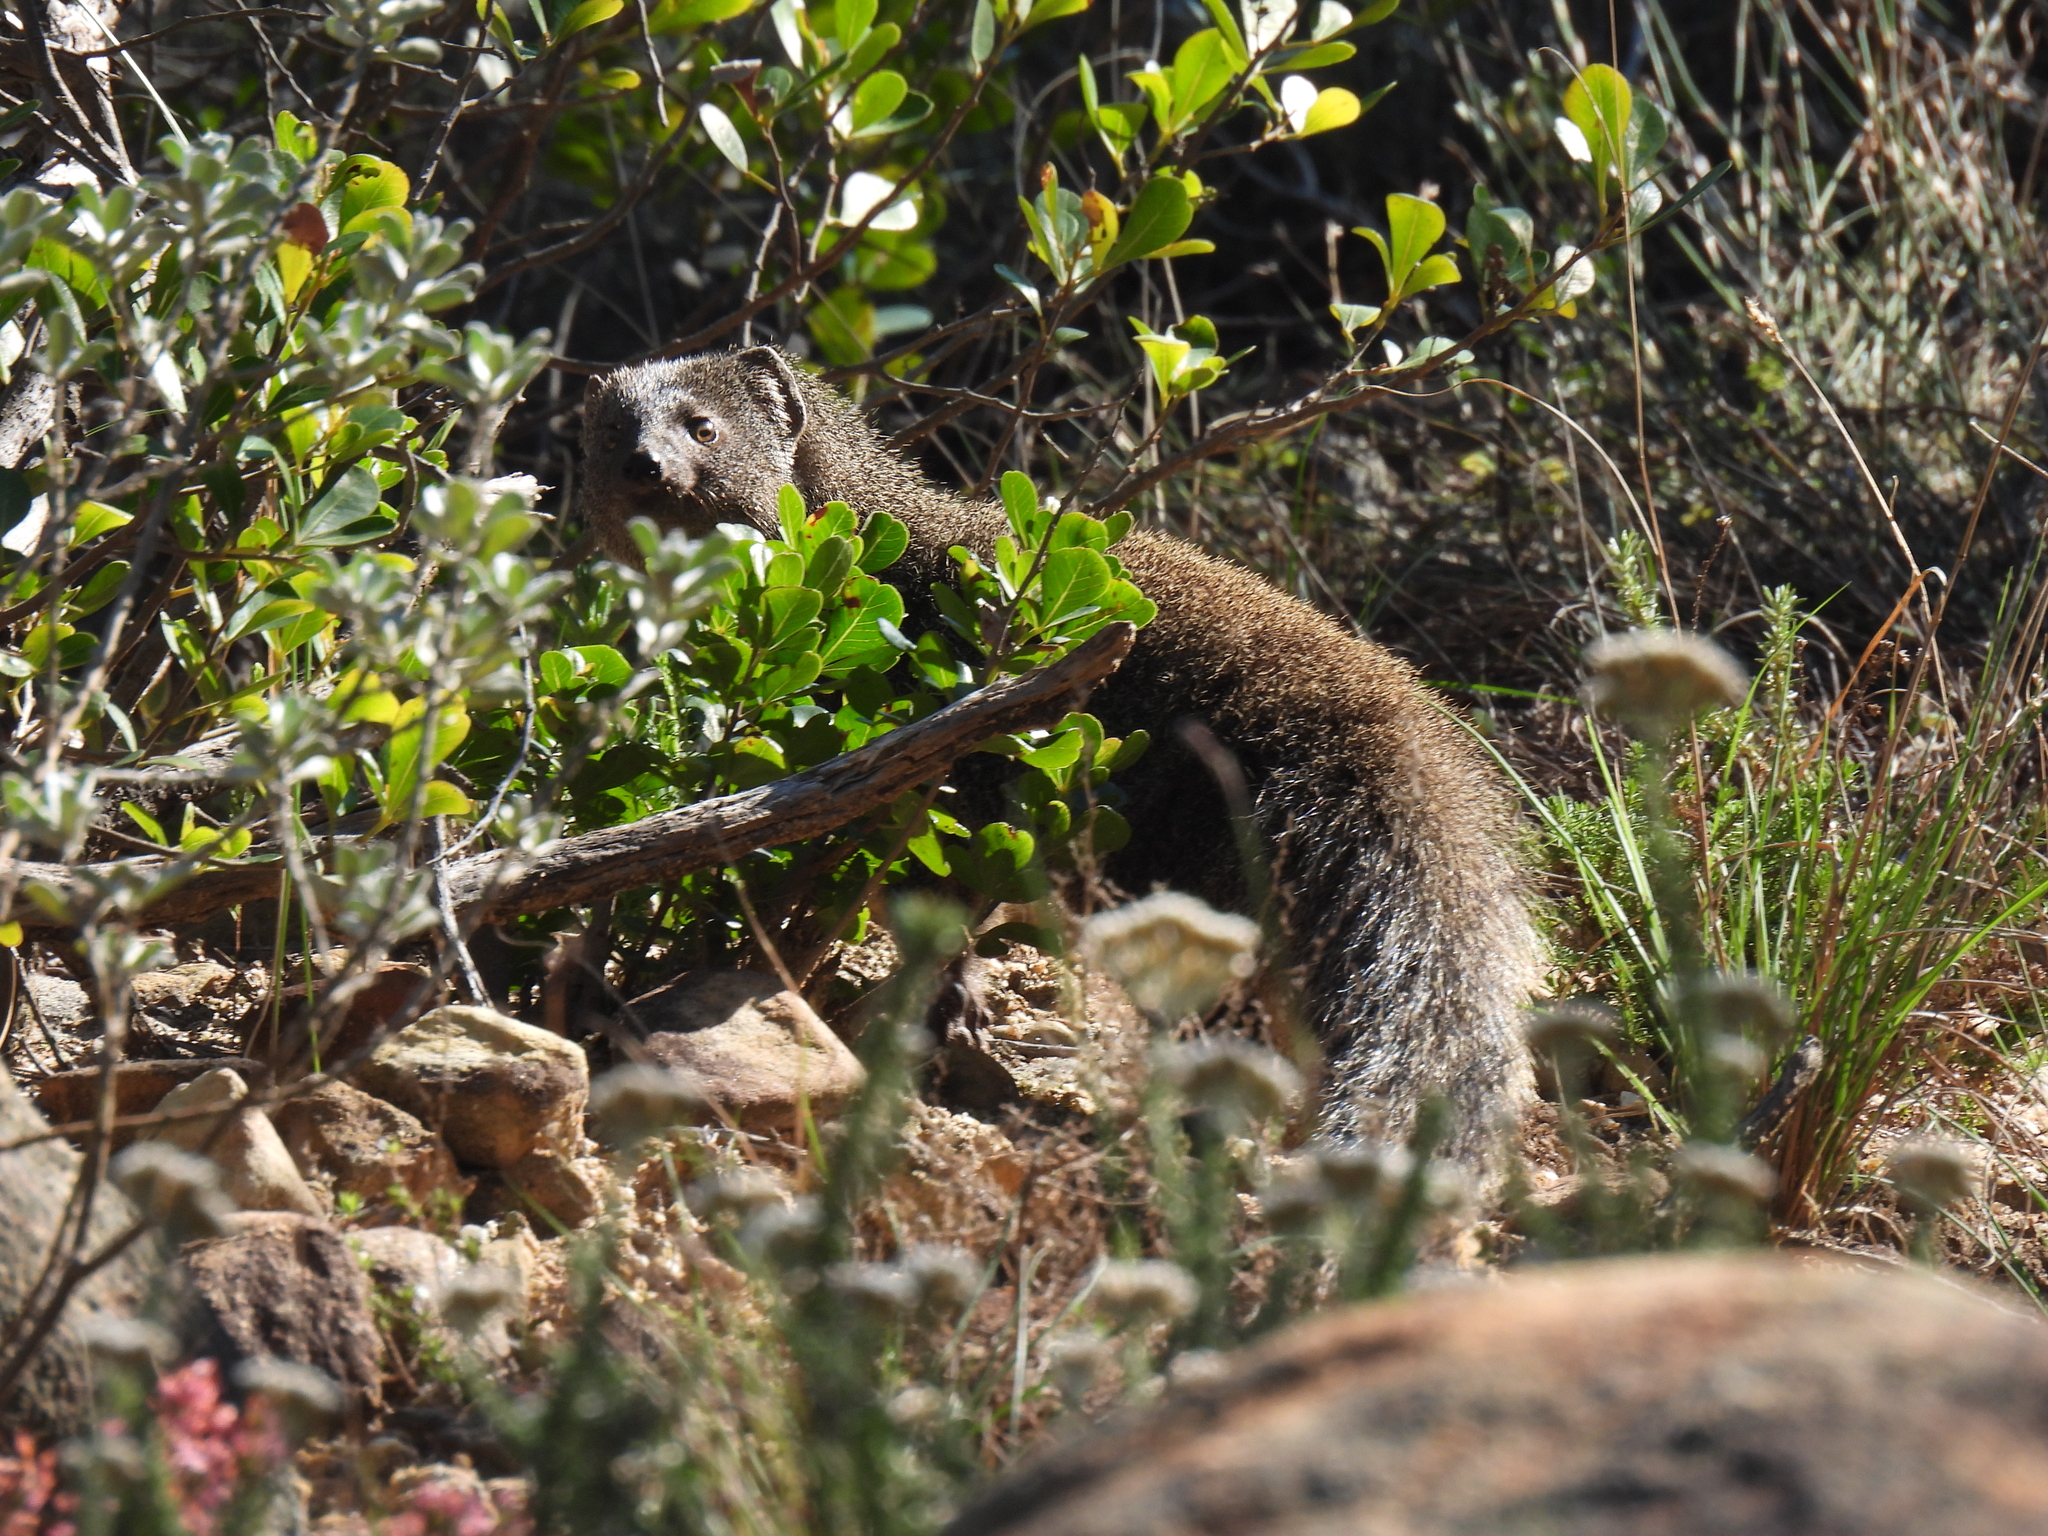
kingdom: Animalia
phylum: Chordata
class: Mammalia
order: Carnivora
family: Herpestidae
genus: Galerella
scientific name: Galerella pulverulenta
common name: Cape gray mongoose
